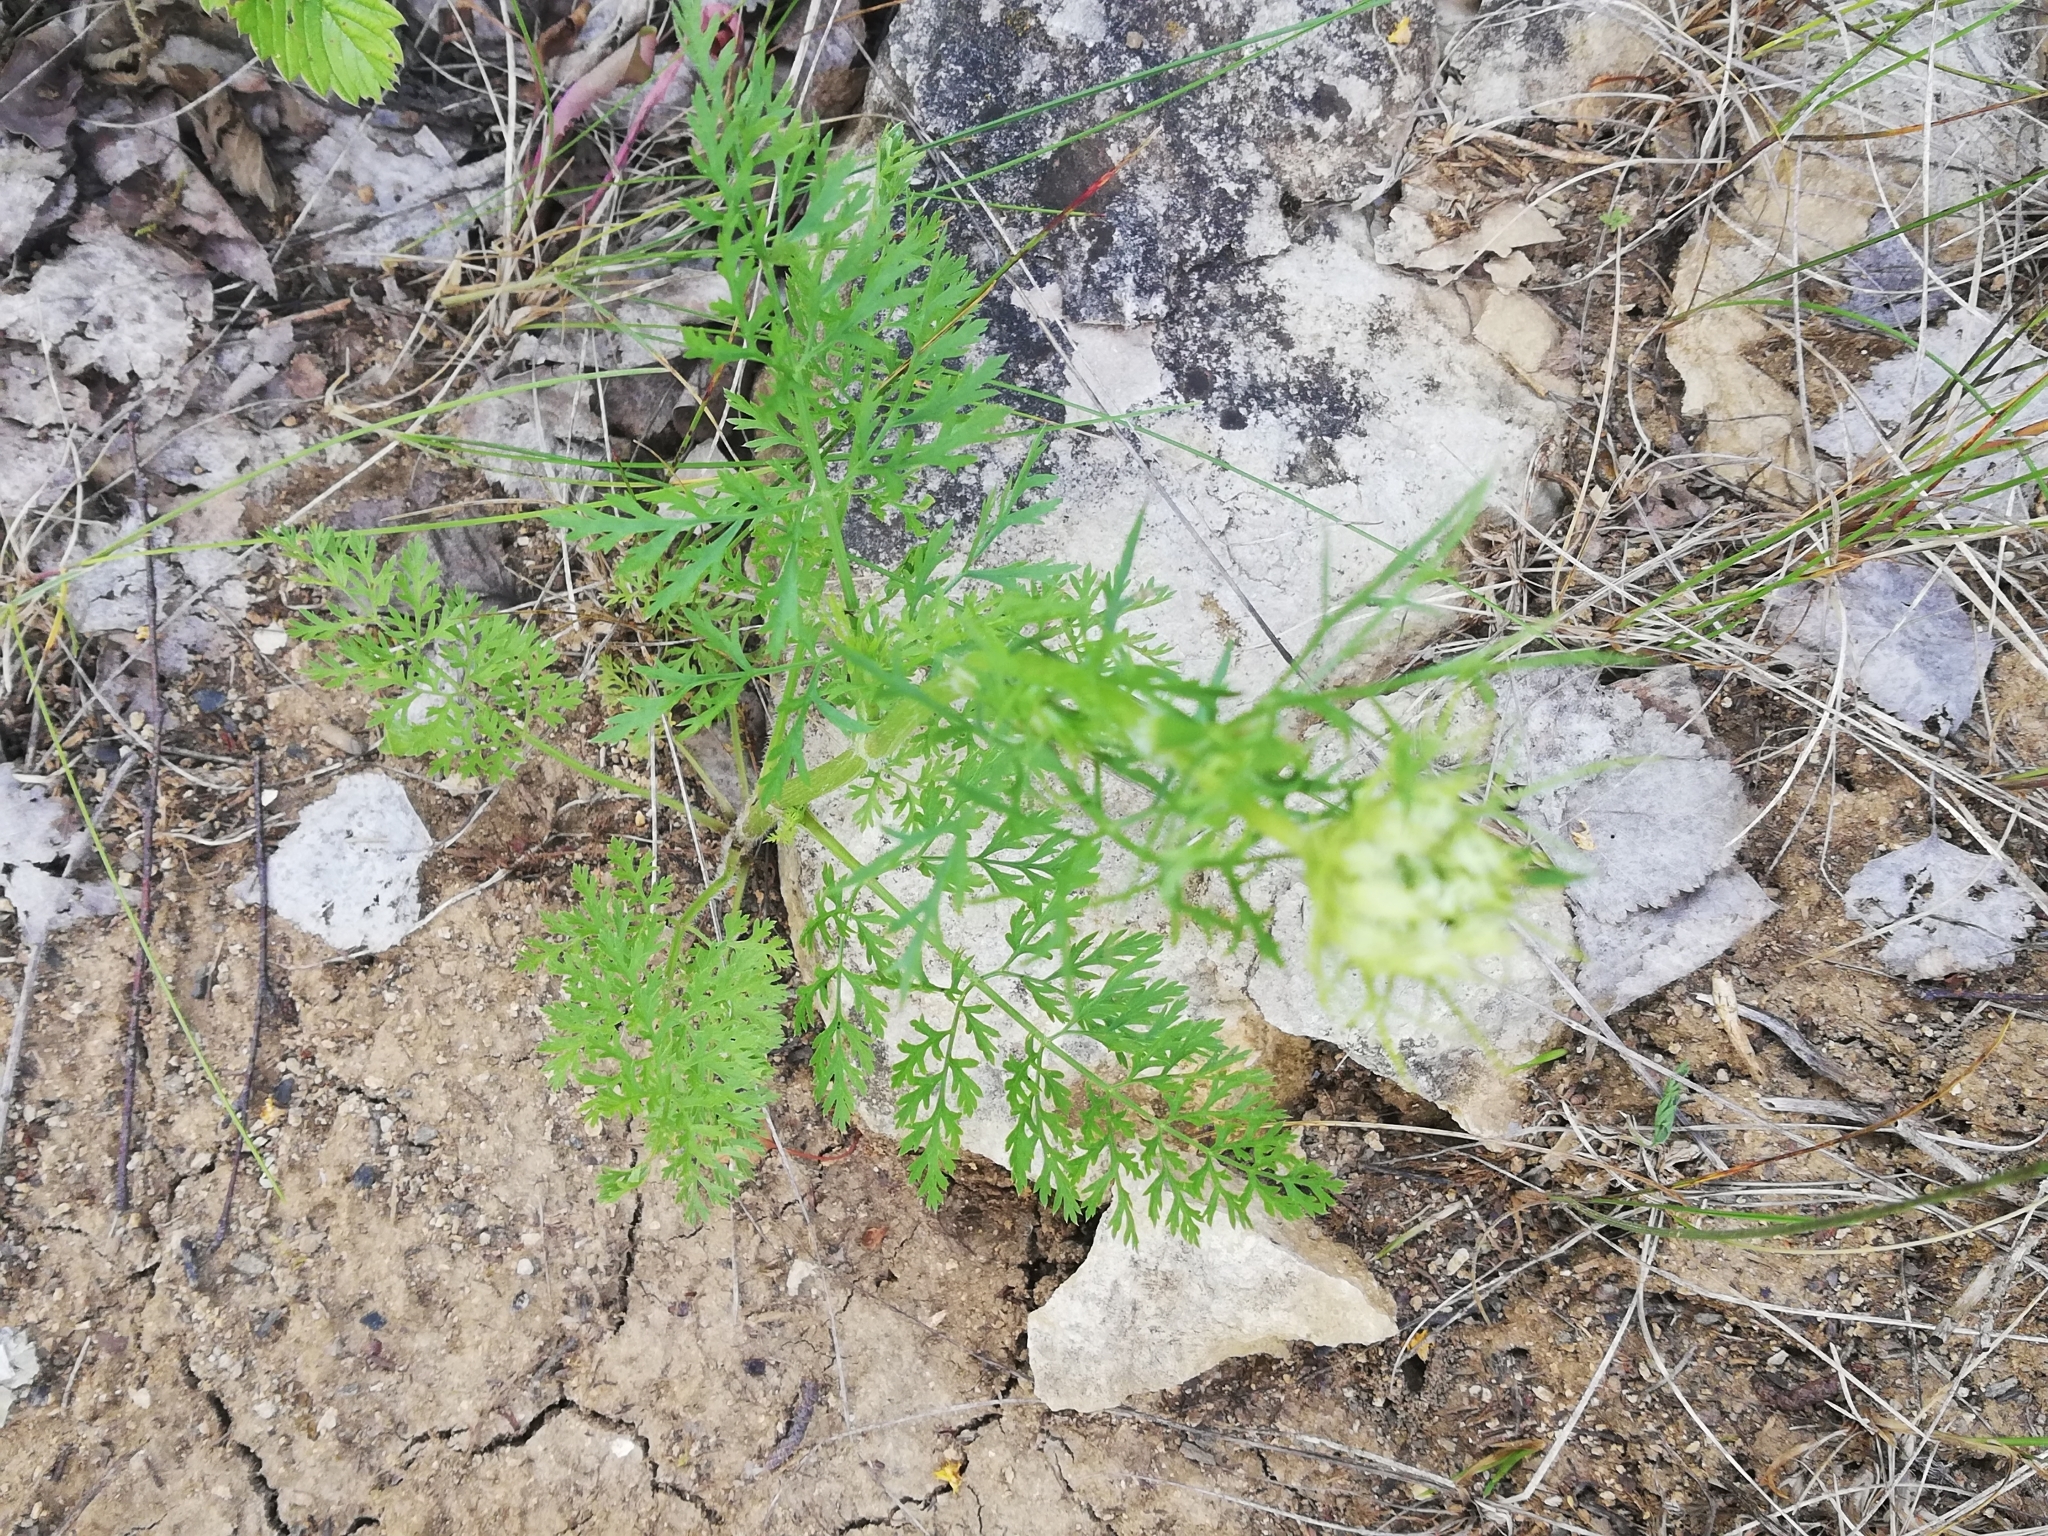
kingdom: Plantae
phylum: Tracheophyta
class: Magnoliopsida
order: Apiales
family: Apiaceae
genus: Daucus
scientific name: Daucus carota
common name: Wild carrot
